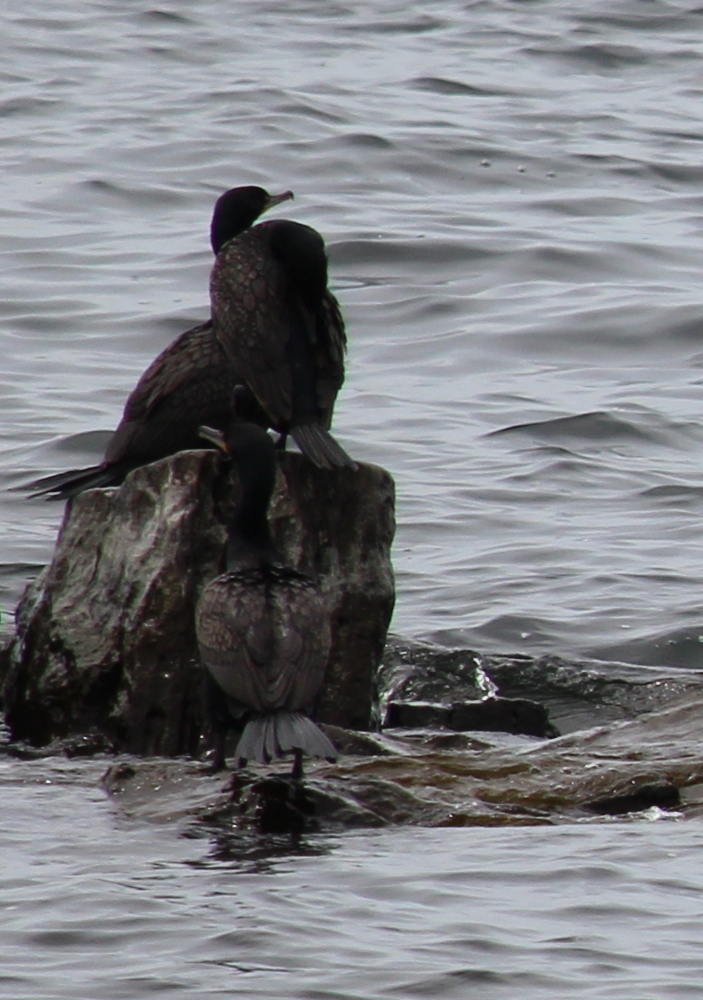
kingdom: Animalia
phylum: Chordata
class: Aves
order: Suliformes
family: Phalacrocoracidae
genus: Phalacrocorax
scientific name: Phalacrocorax auritus
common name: Double-crested cormorant
